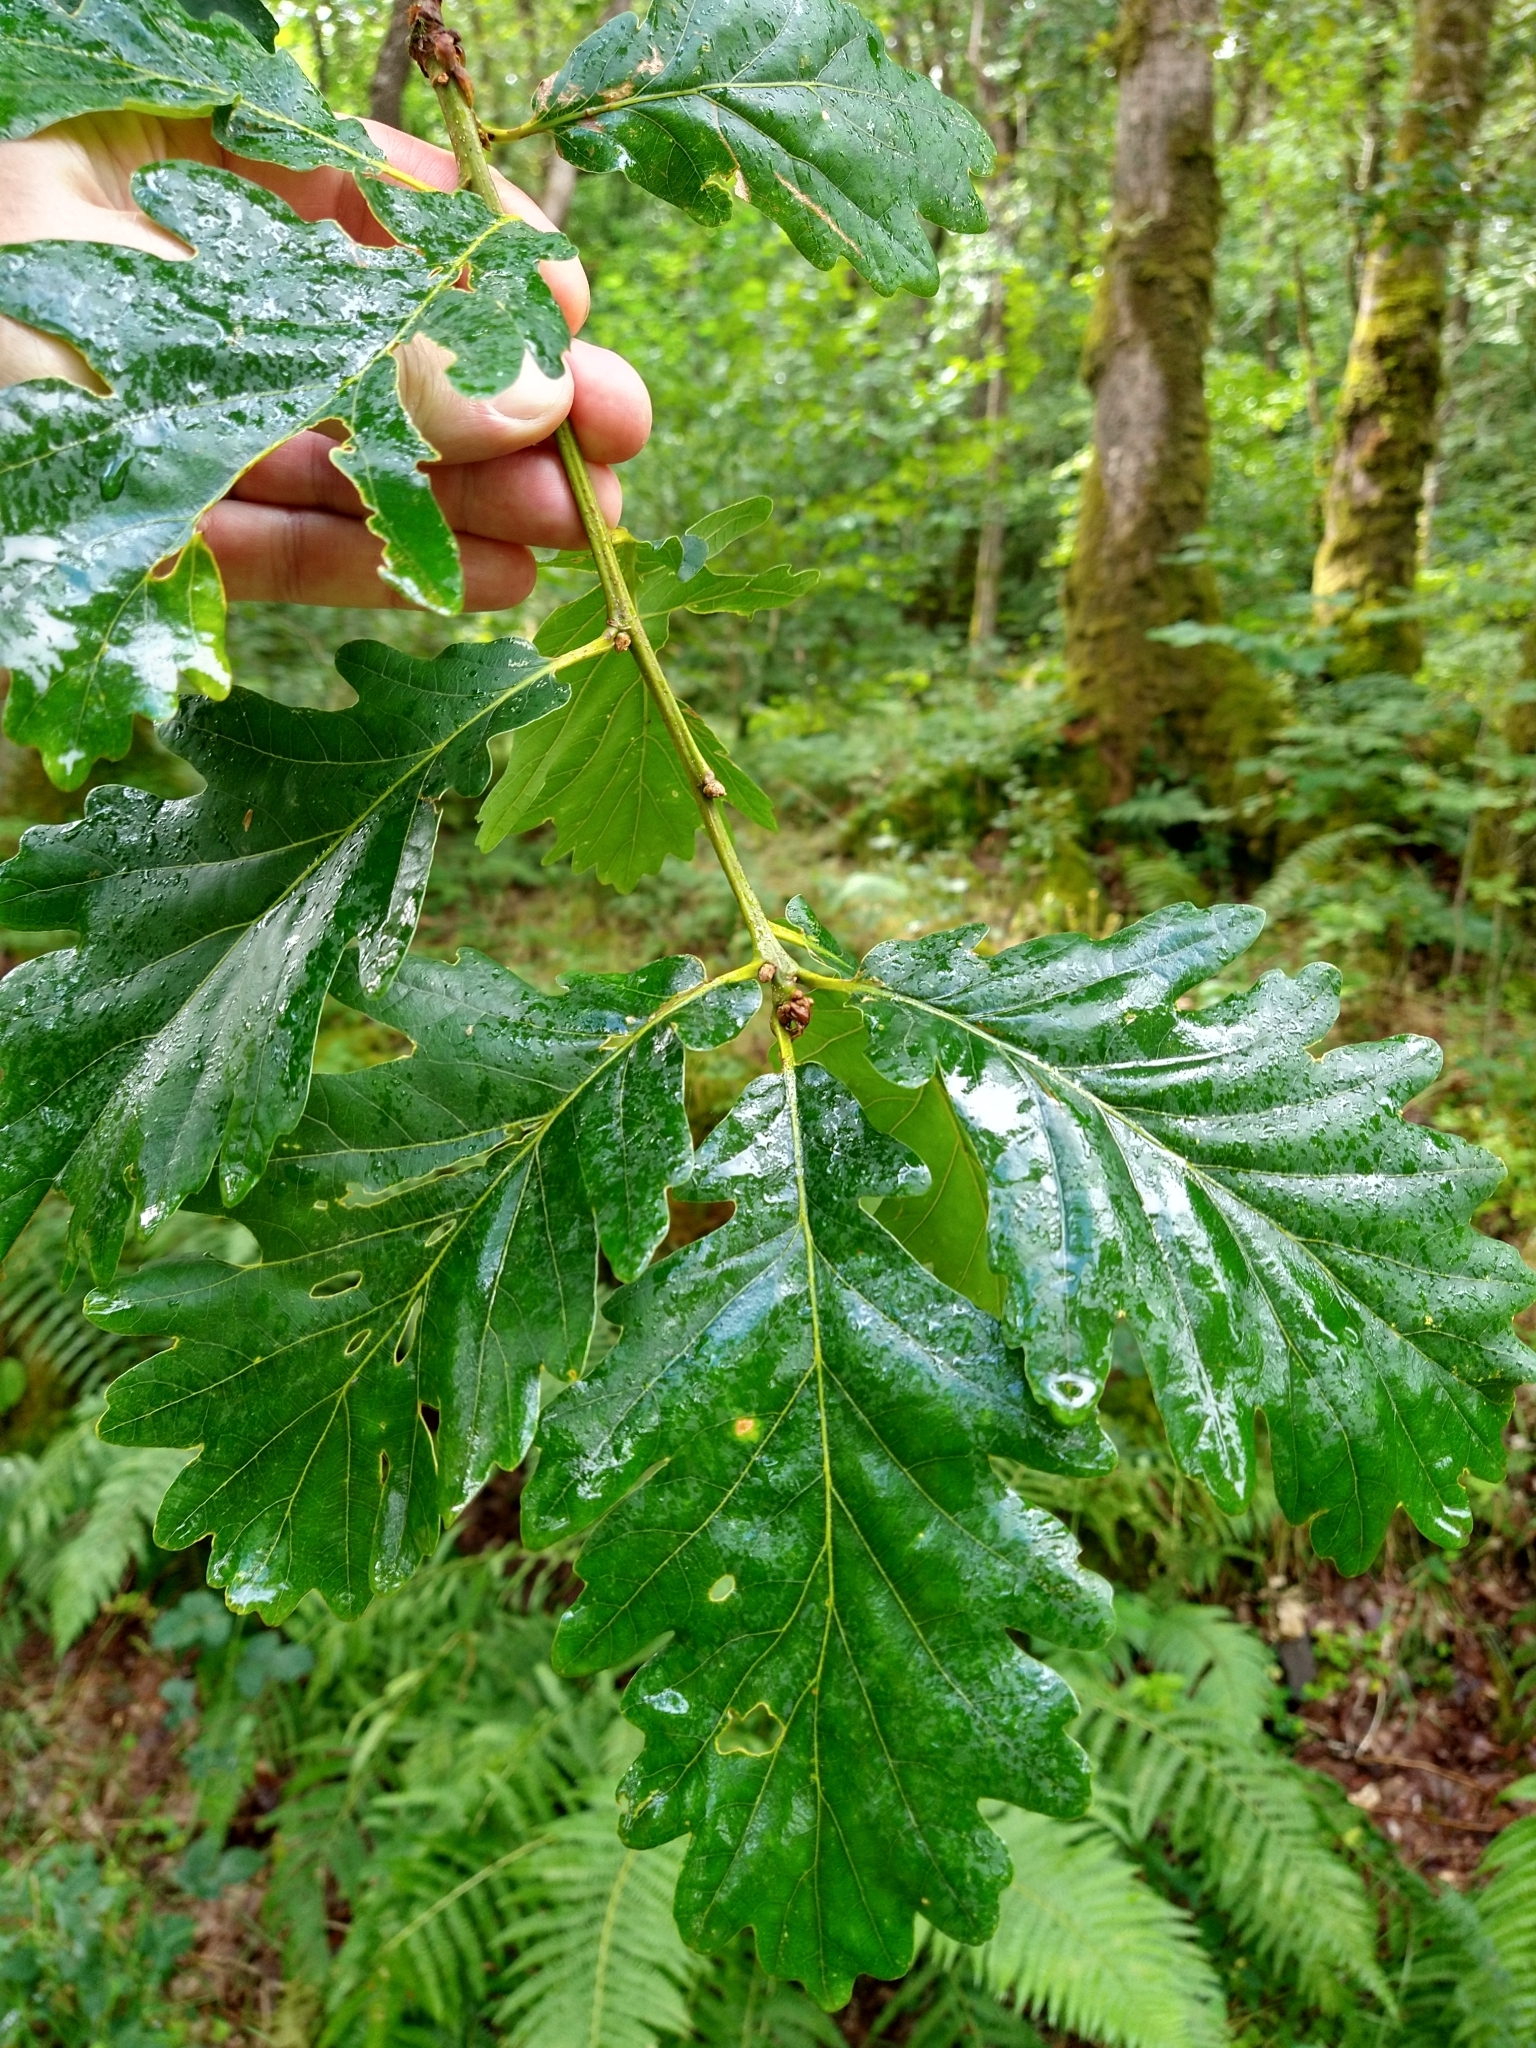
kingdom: Plantae
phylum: Tracheophyta
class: Magnoliopsida
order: Fagales
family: Fagaceae
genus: Quercus
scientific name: Quercus petraea
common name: Sessile oak
